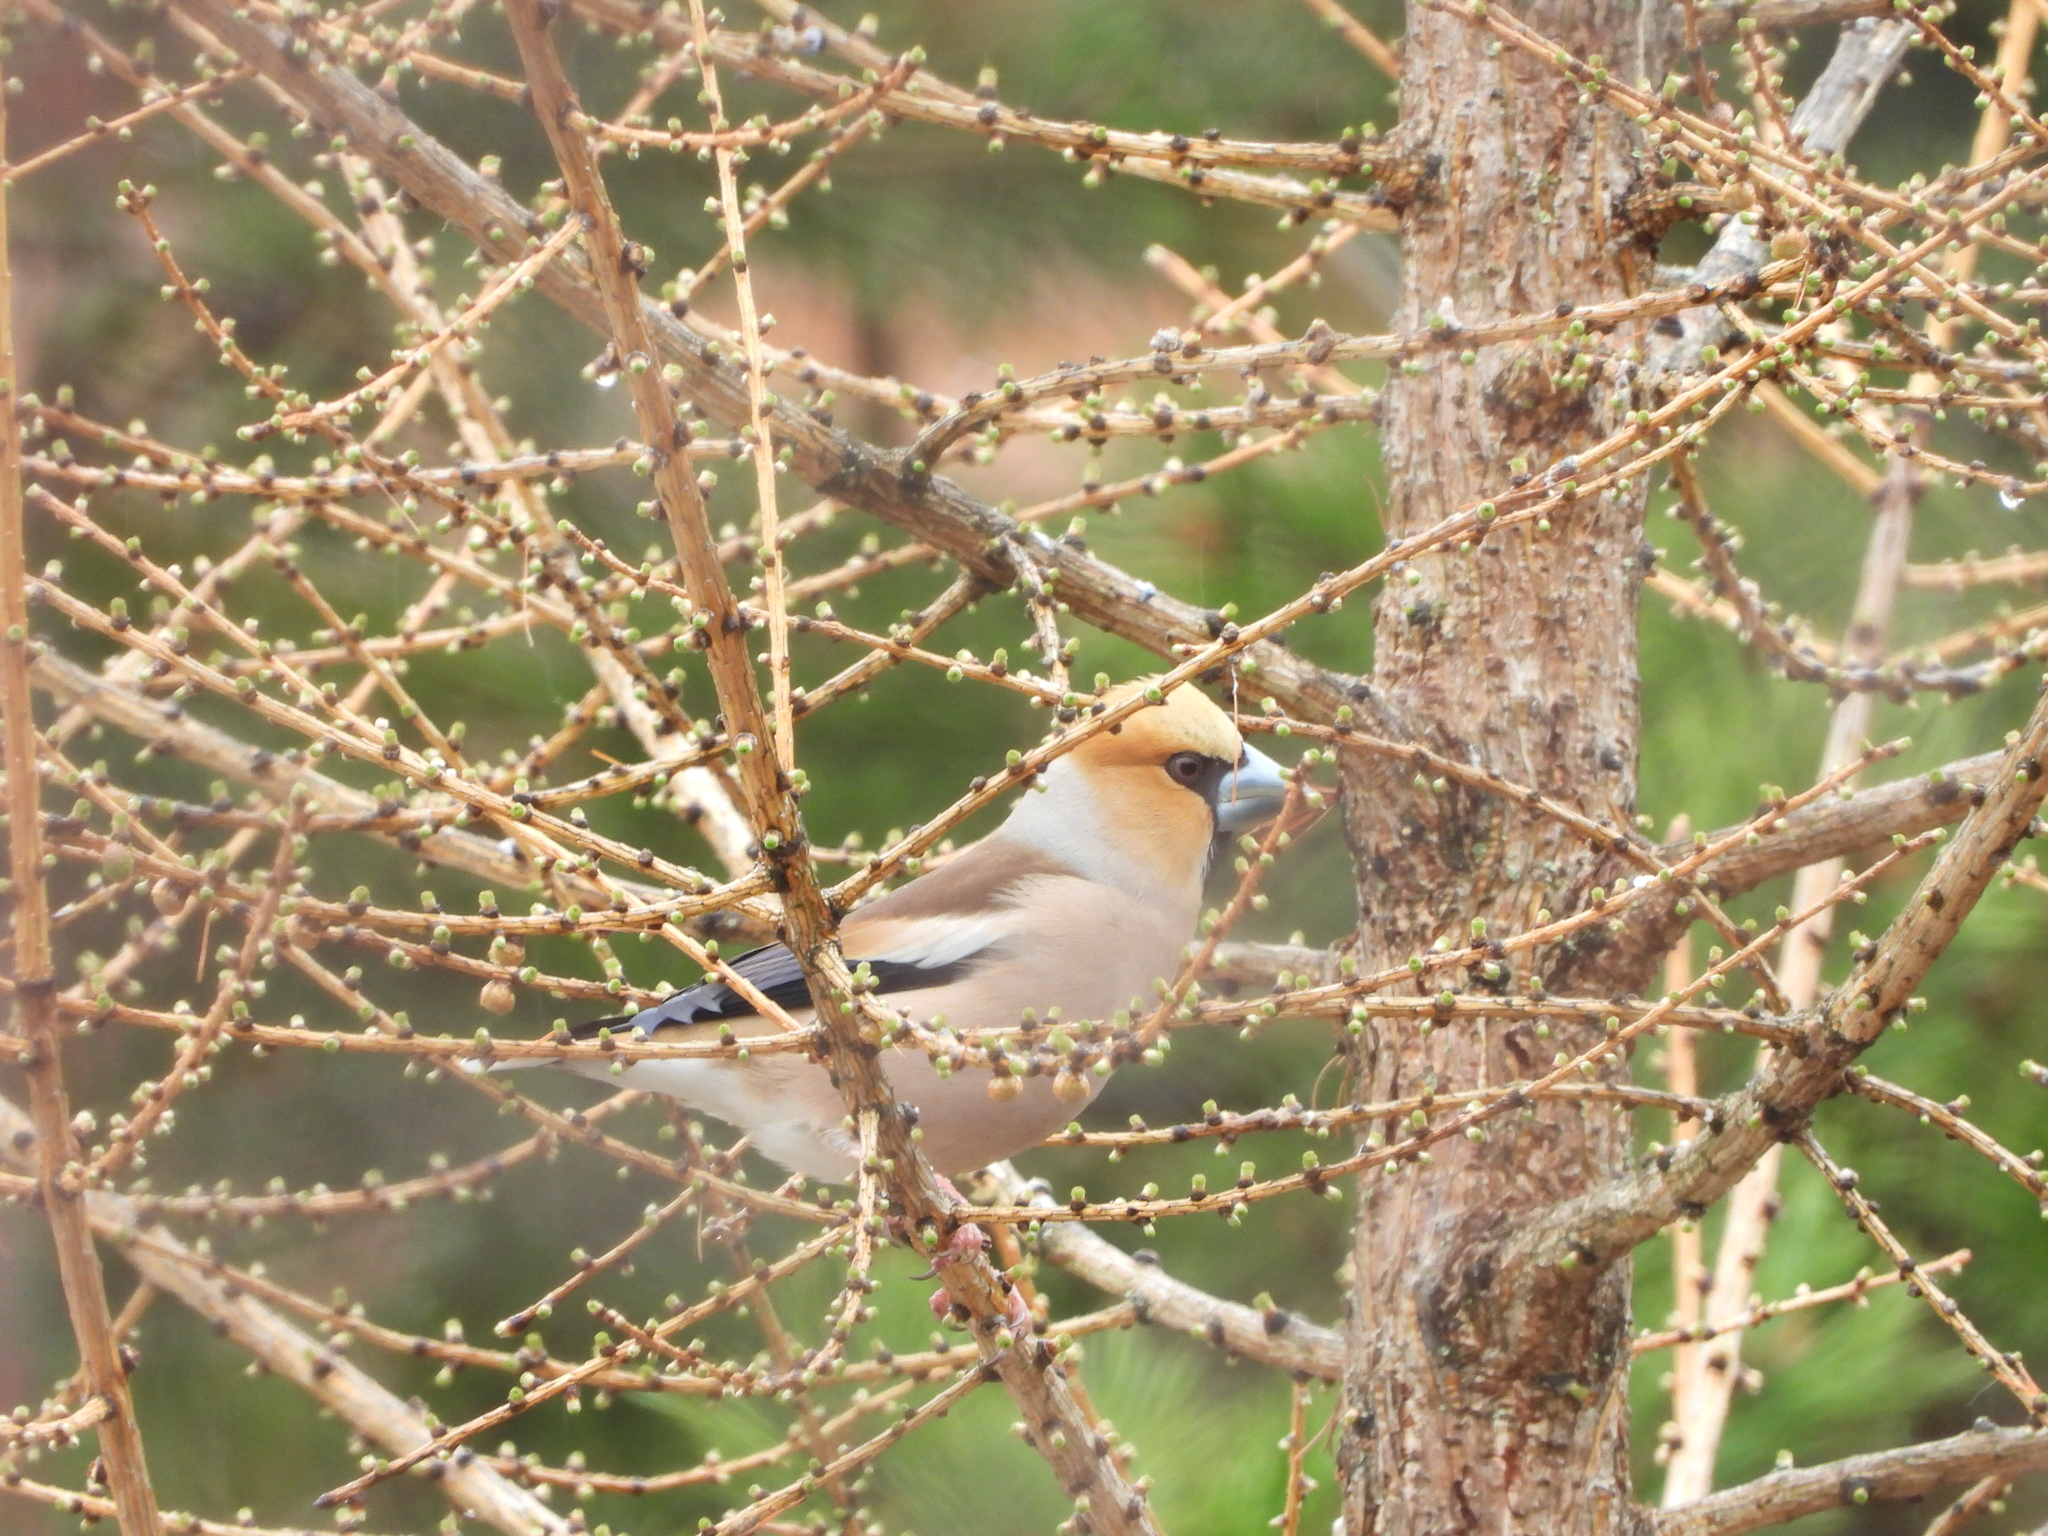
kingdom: Animalia
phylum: Chordata
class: Aves
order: Passeriformes
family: Fringillidae
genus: Coccothraustes
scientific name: Coccothraustes coccothraustes
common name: Hawfinch
